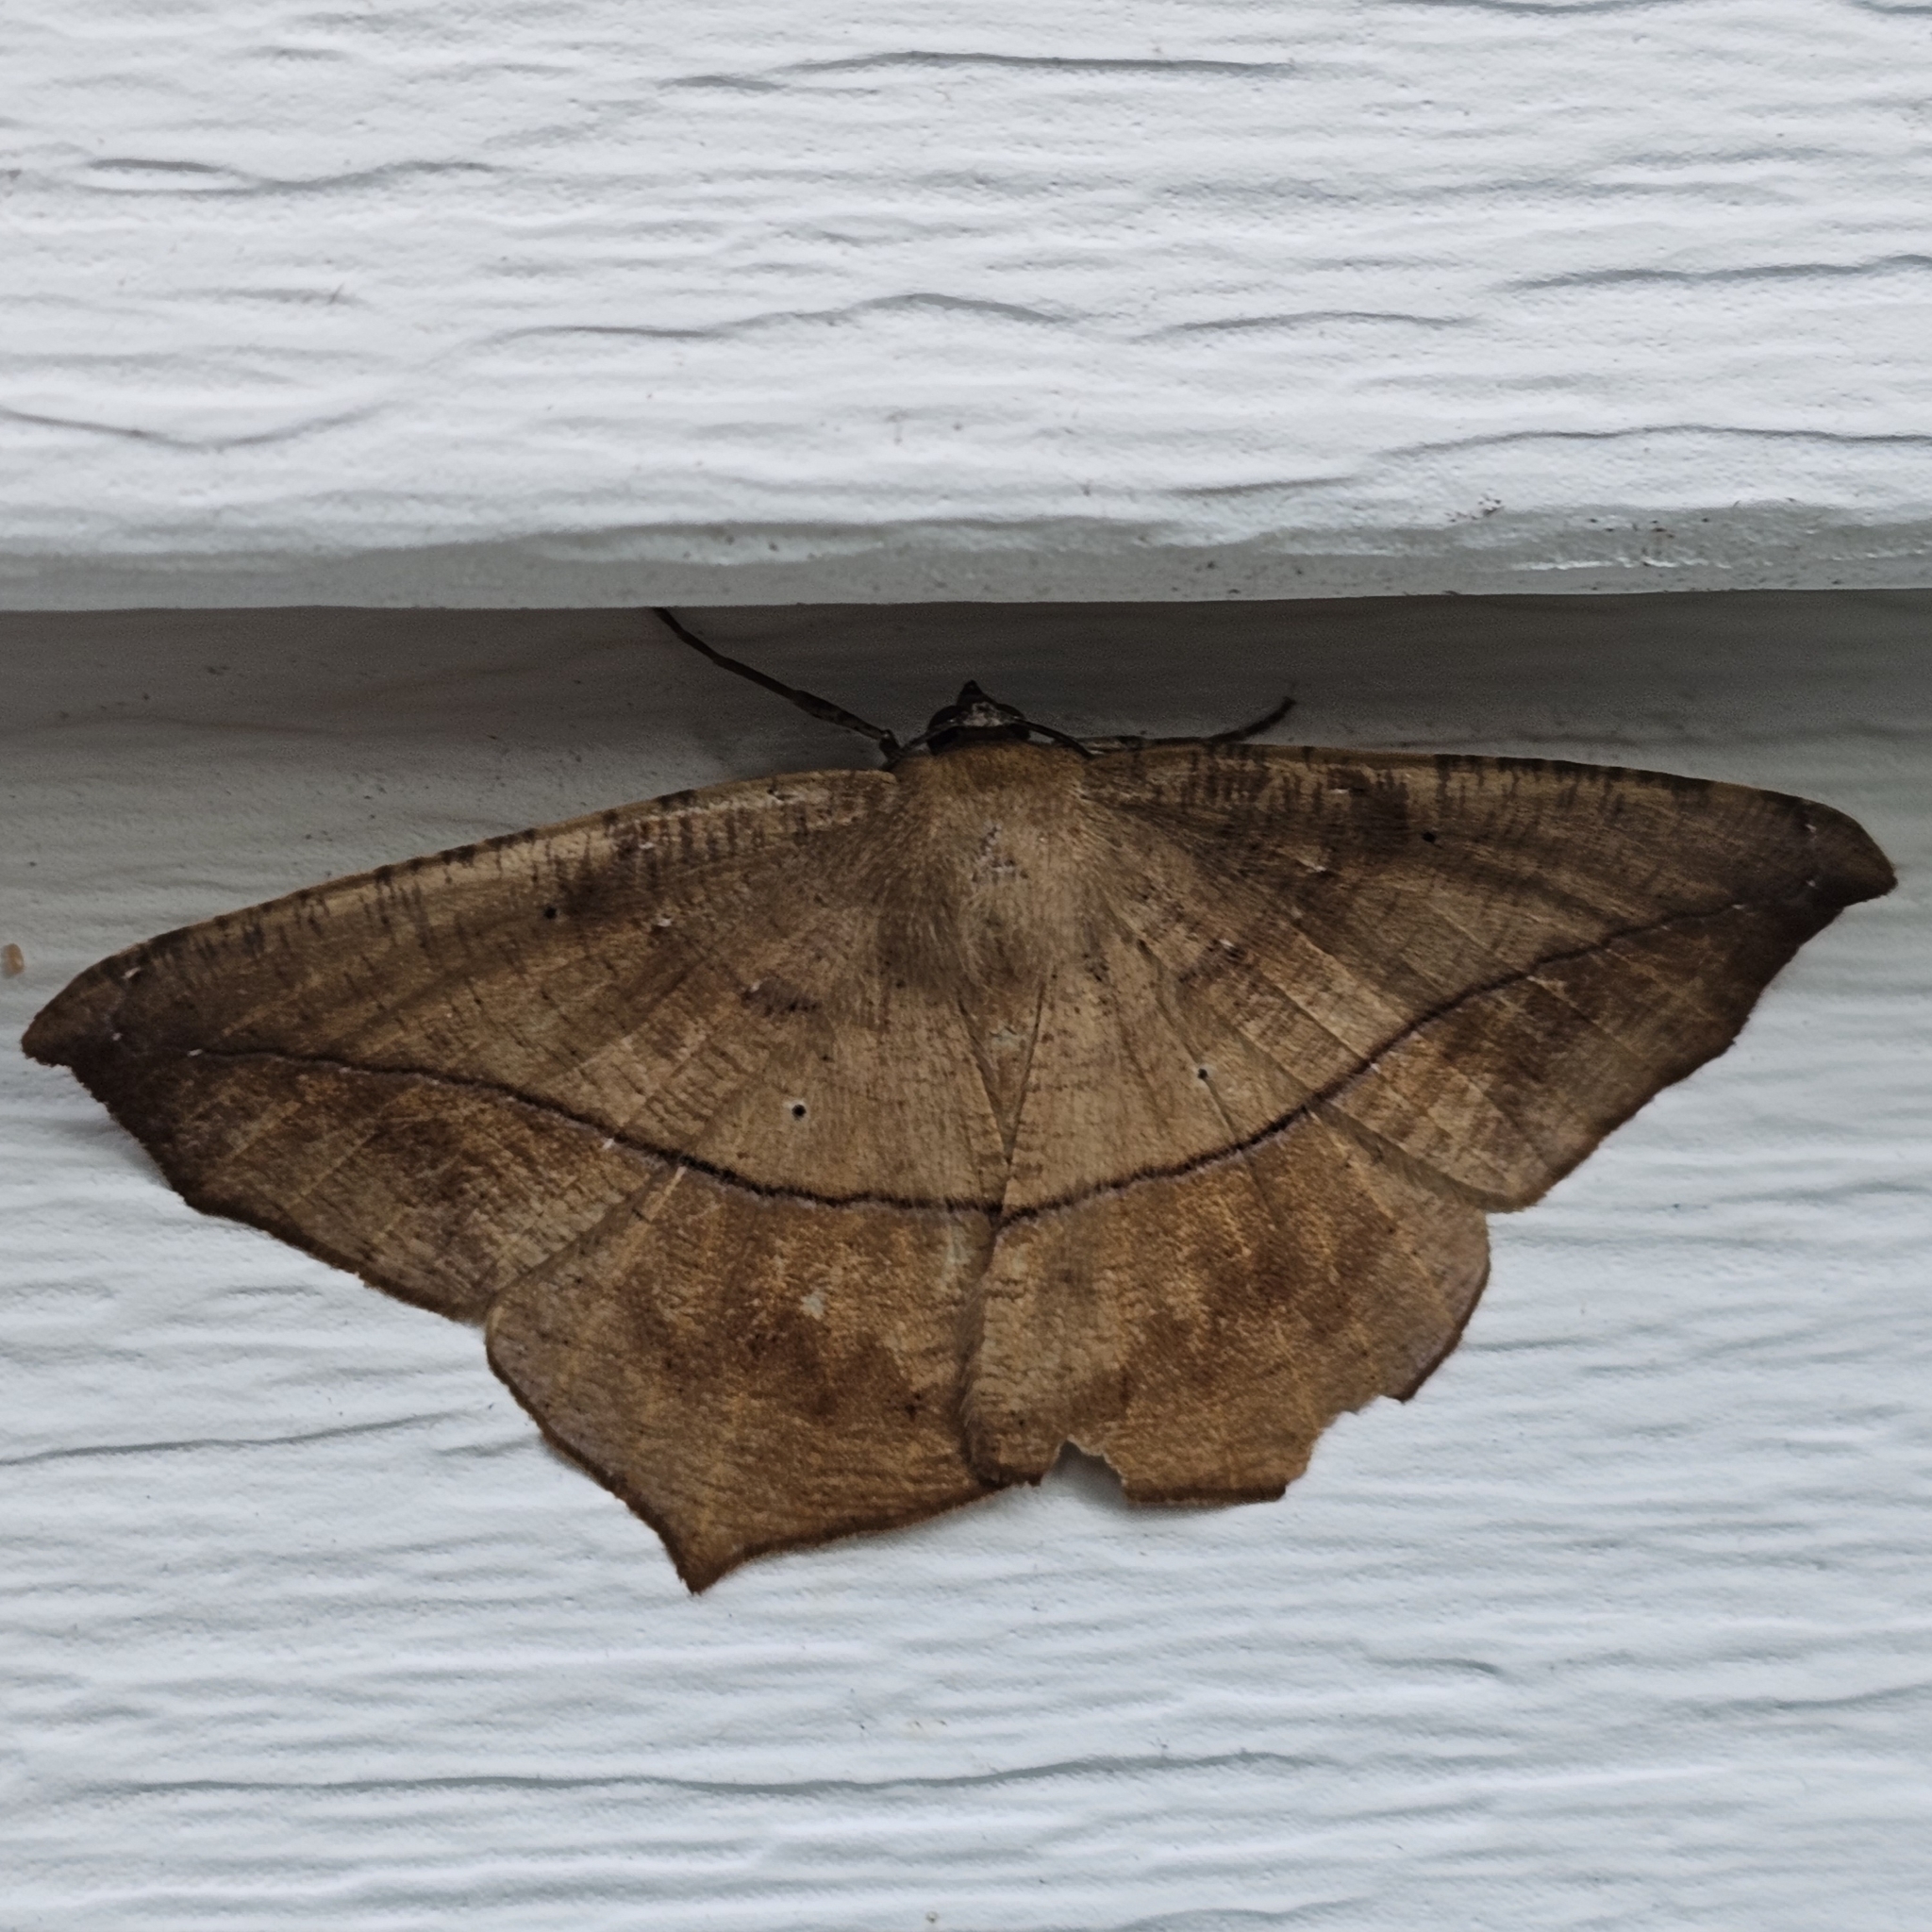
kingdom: Animalia
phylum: Arthropoda
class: Insecta
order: Lepidoptera
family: Geometridae
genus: Prochoerodes
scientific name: Prochoerodes lineola
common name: Large maple spanworm
